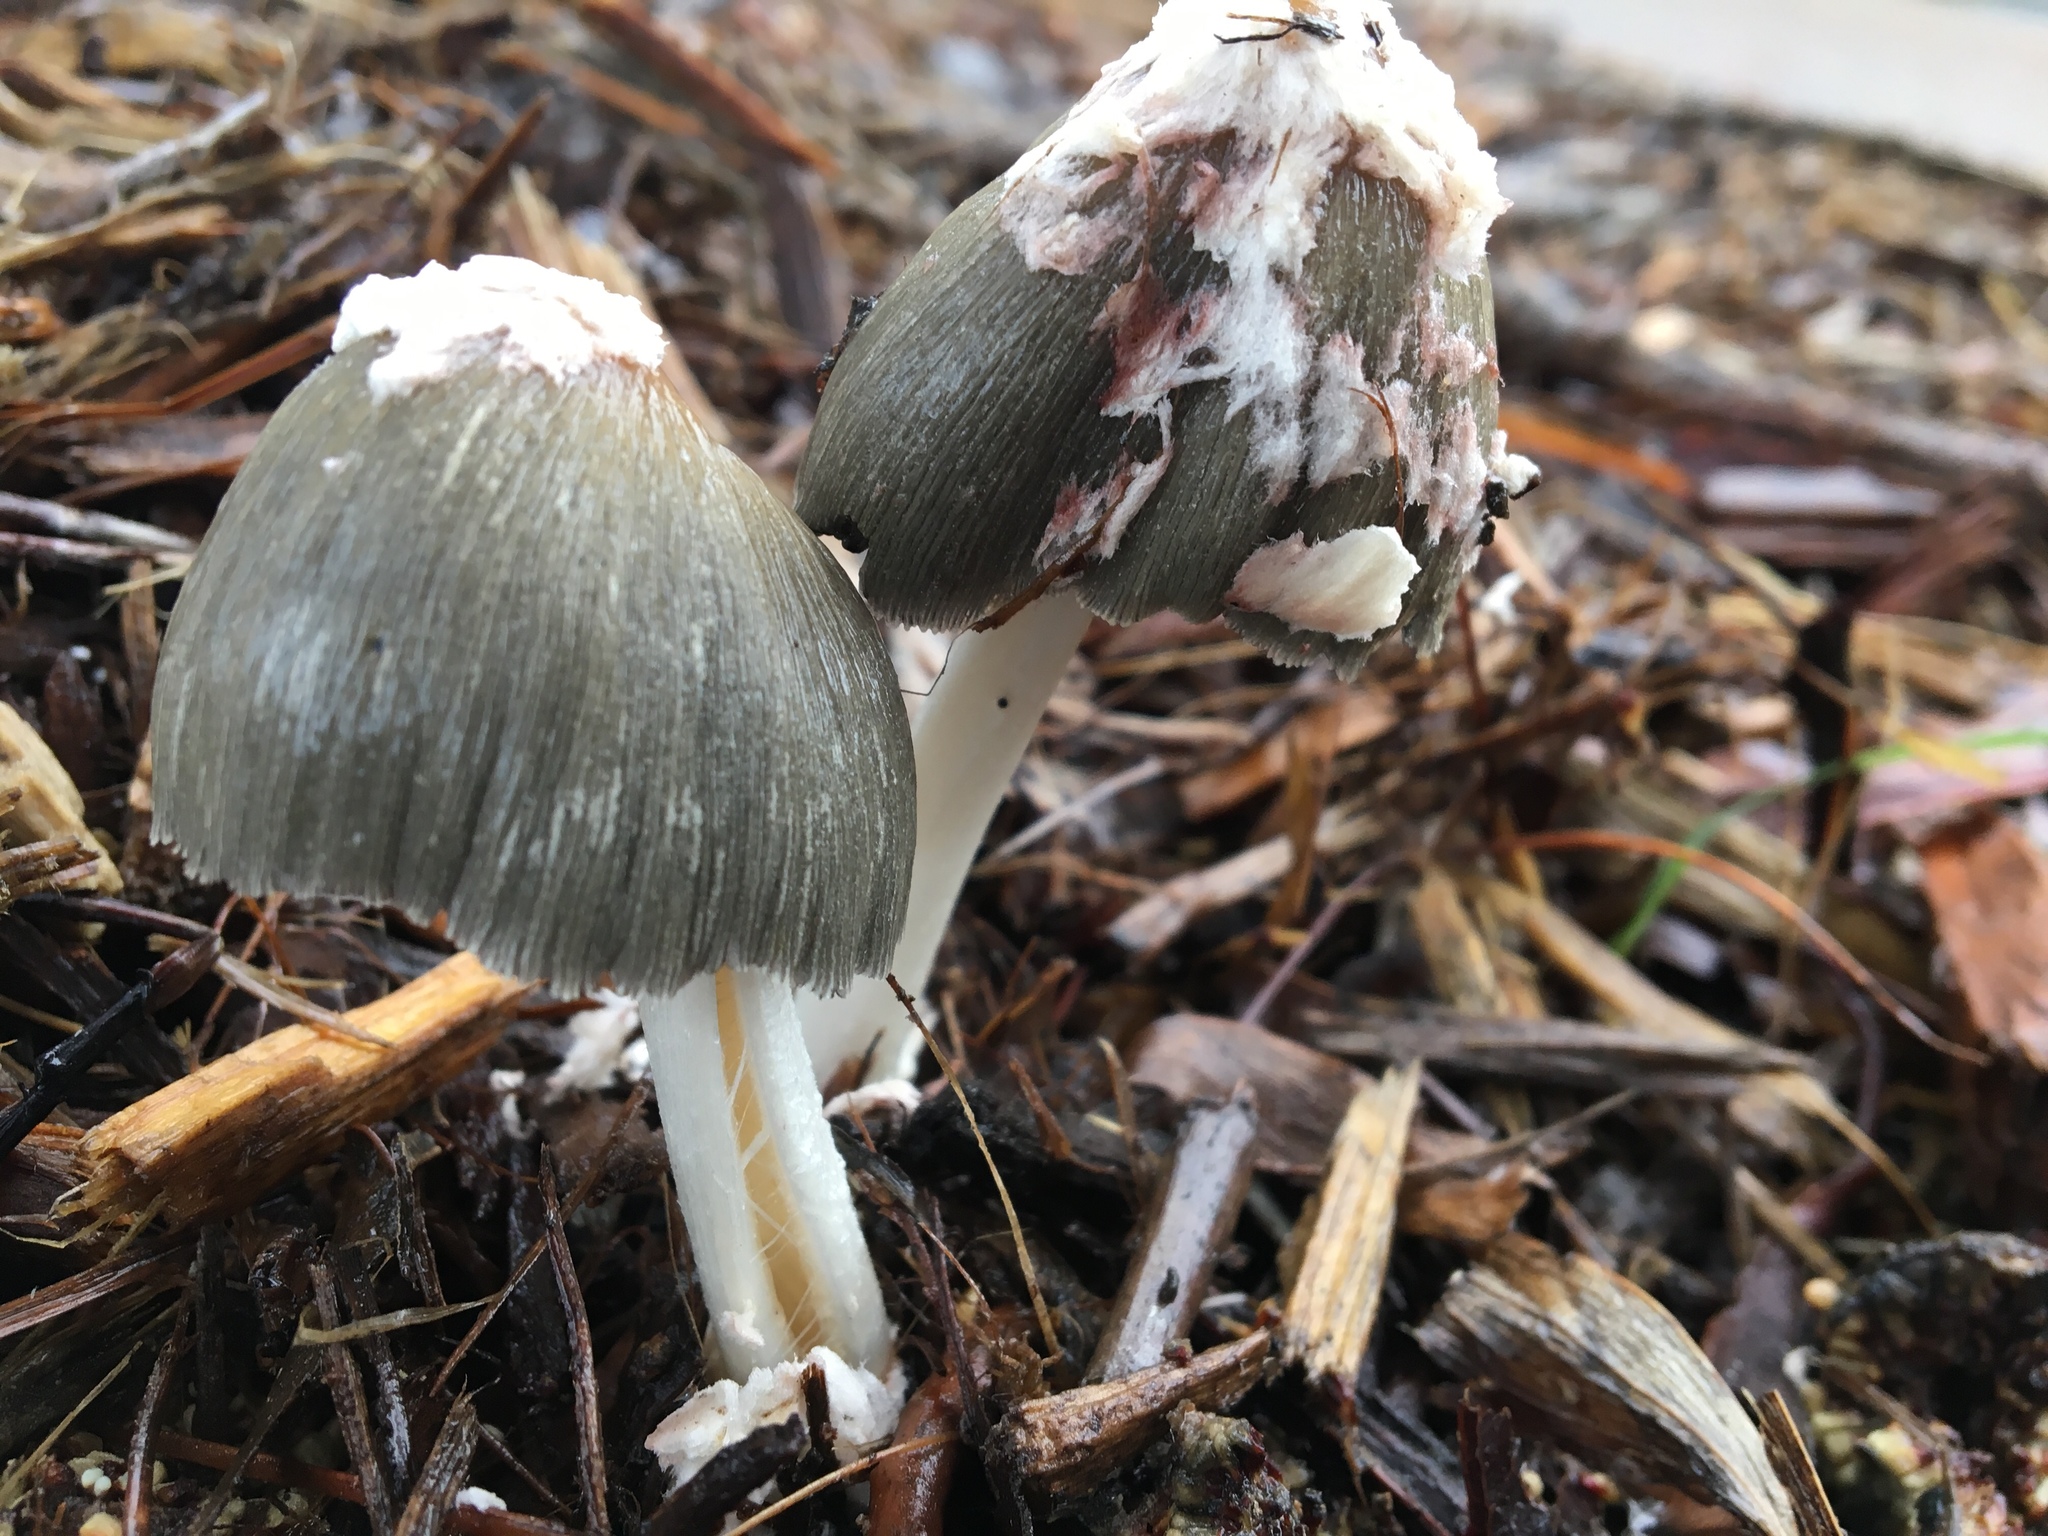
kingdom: Fungi
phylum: Basidiomycota
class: Agaricomycetes
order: Agaricales
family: Psathyrellaceae
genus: Coprinellus
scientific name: Coprinellus flocculosus
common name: Flocculose inkcap
